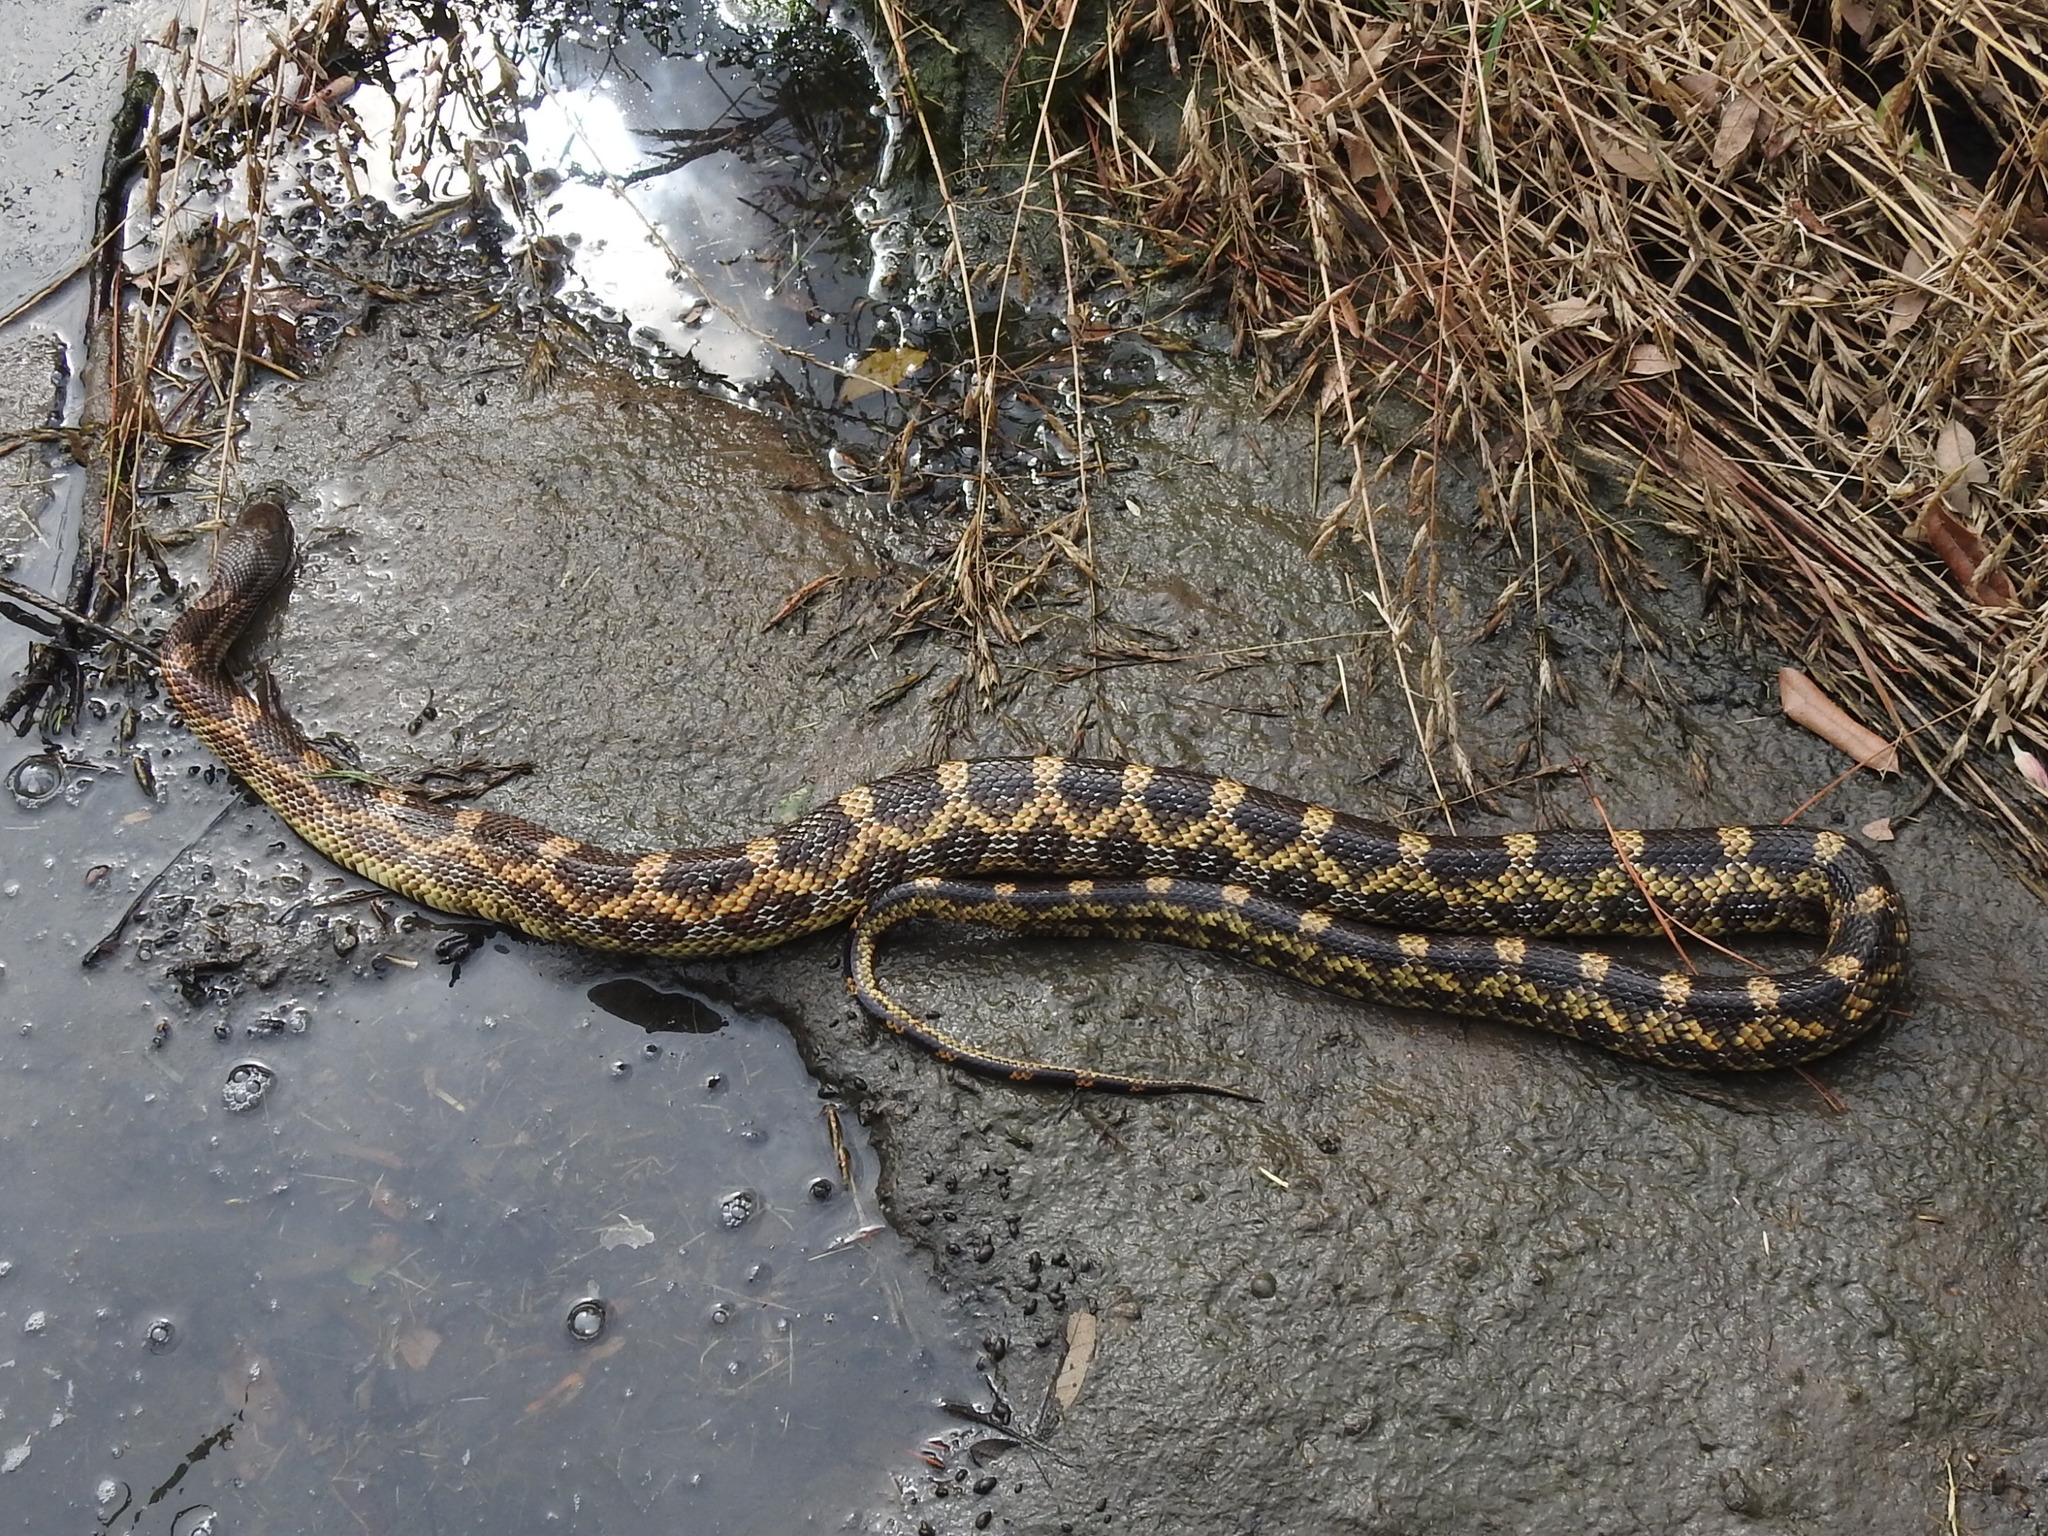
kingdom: Animalia
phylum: Chordata
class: Squamata
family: Colubridae
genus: Pantherophis
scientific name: Pantherophis obsoletus
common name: Black rat snake
